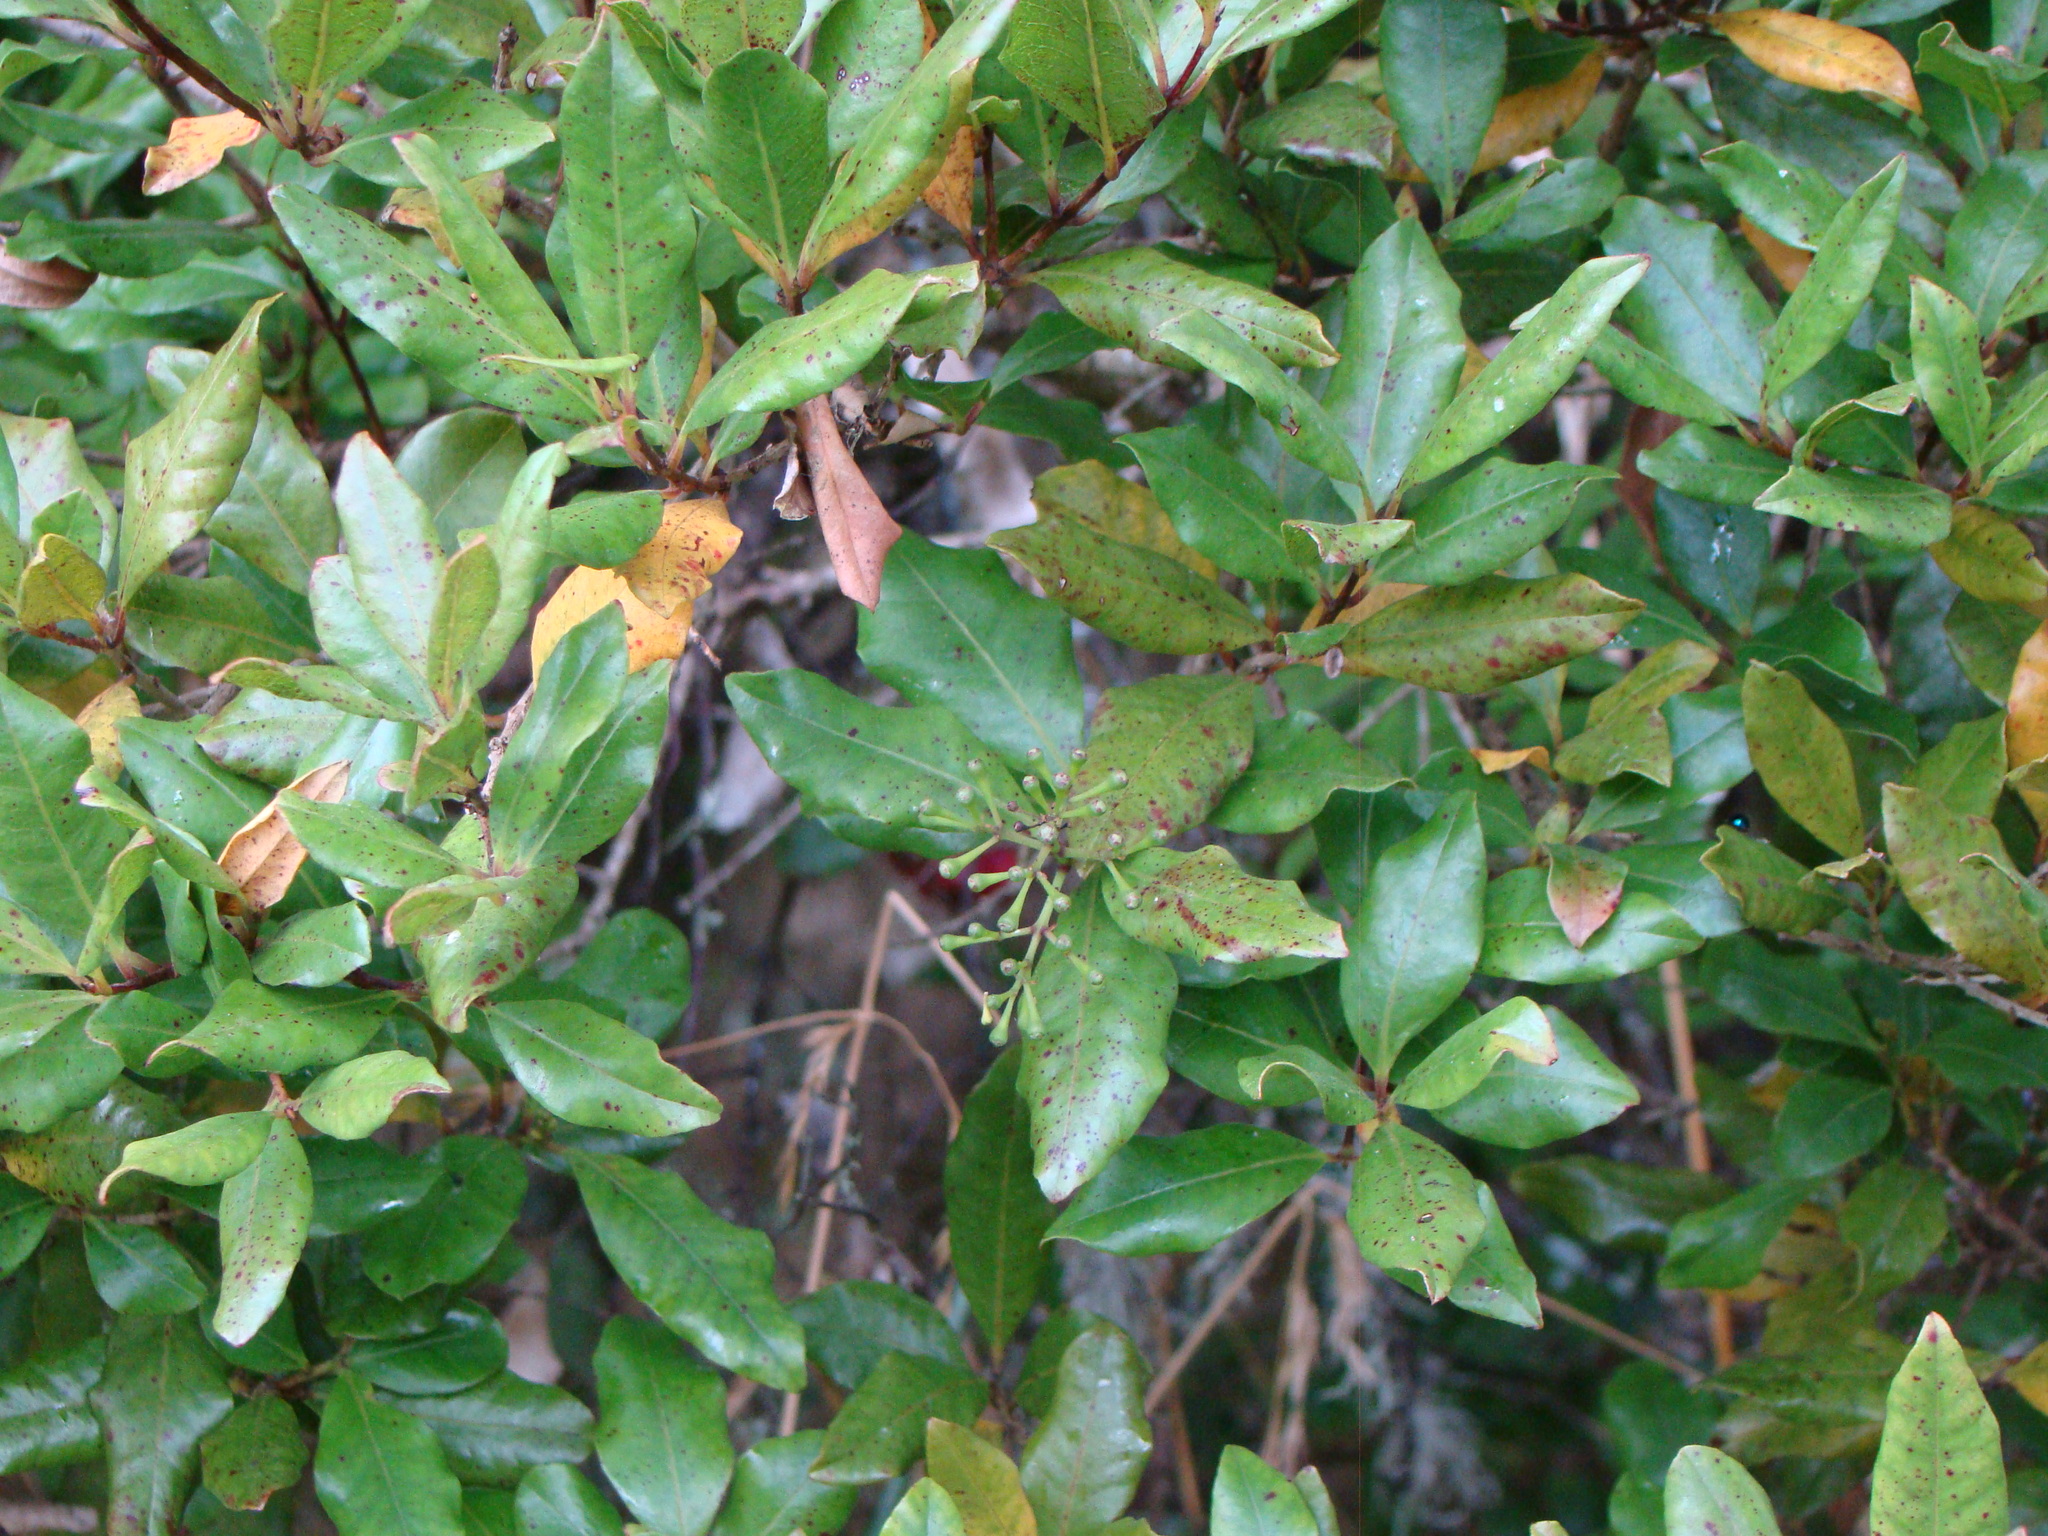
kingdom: Plantae
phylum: Tracheophyta
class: Magnoliopsida
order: Myrtales
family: Myrtaceae
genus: Syzygium
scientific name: Syzygium maire
